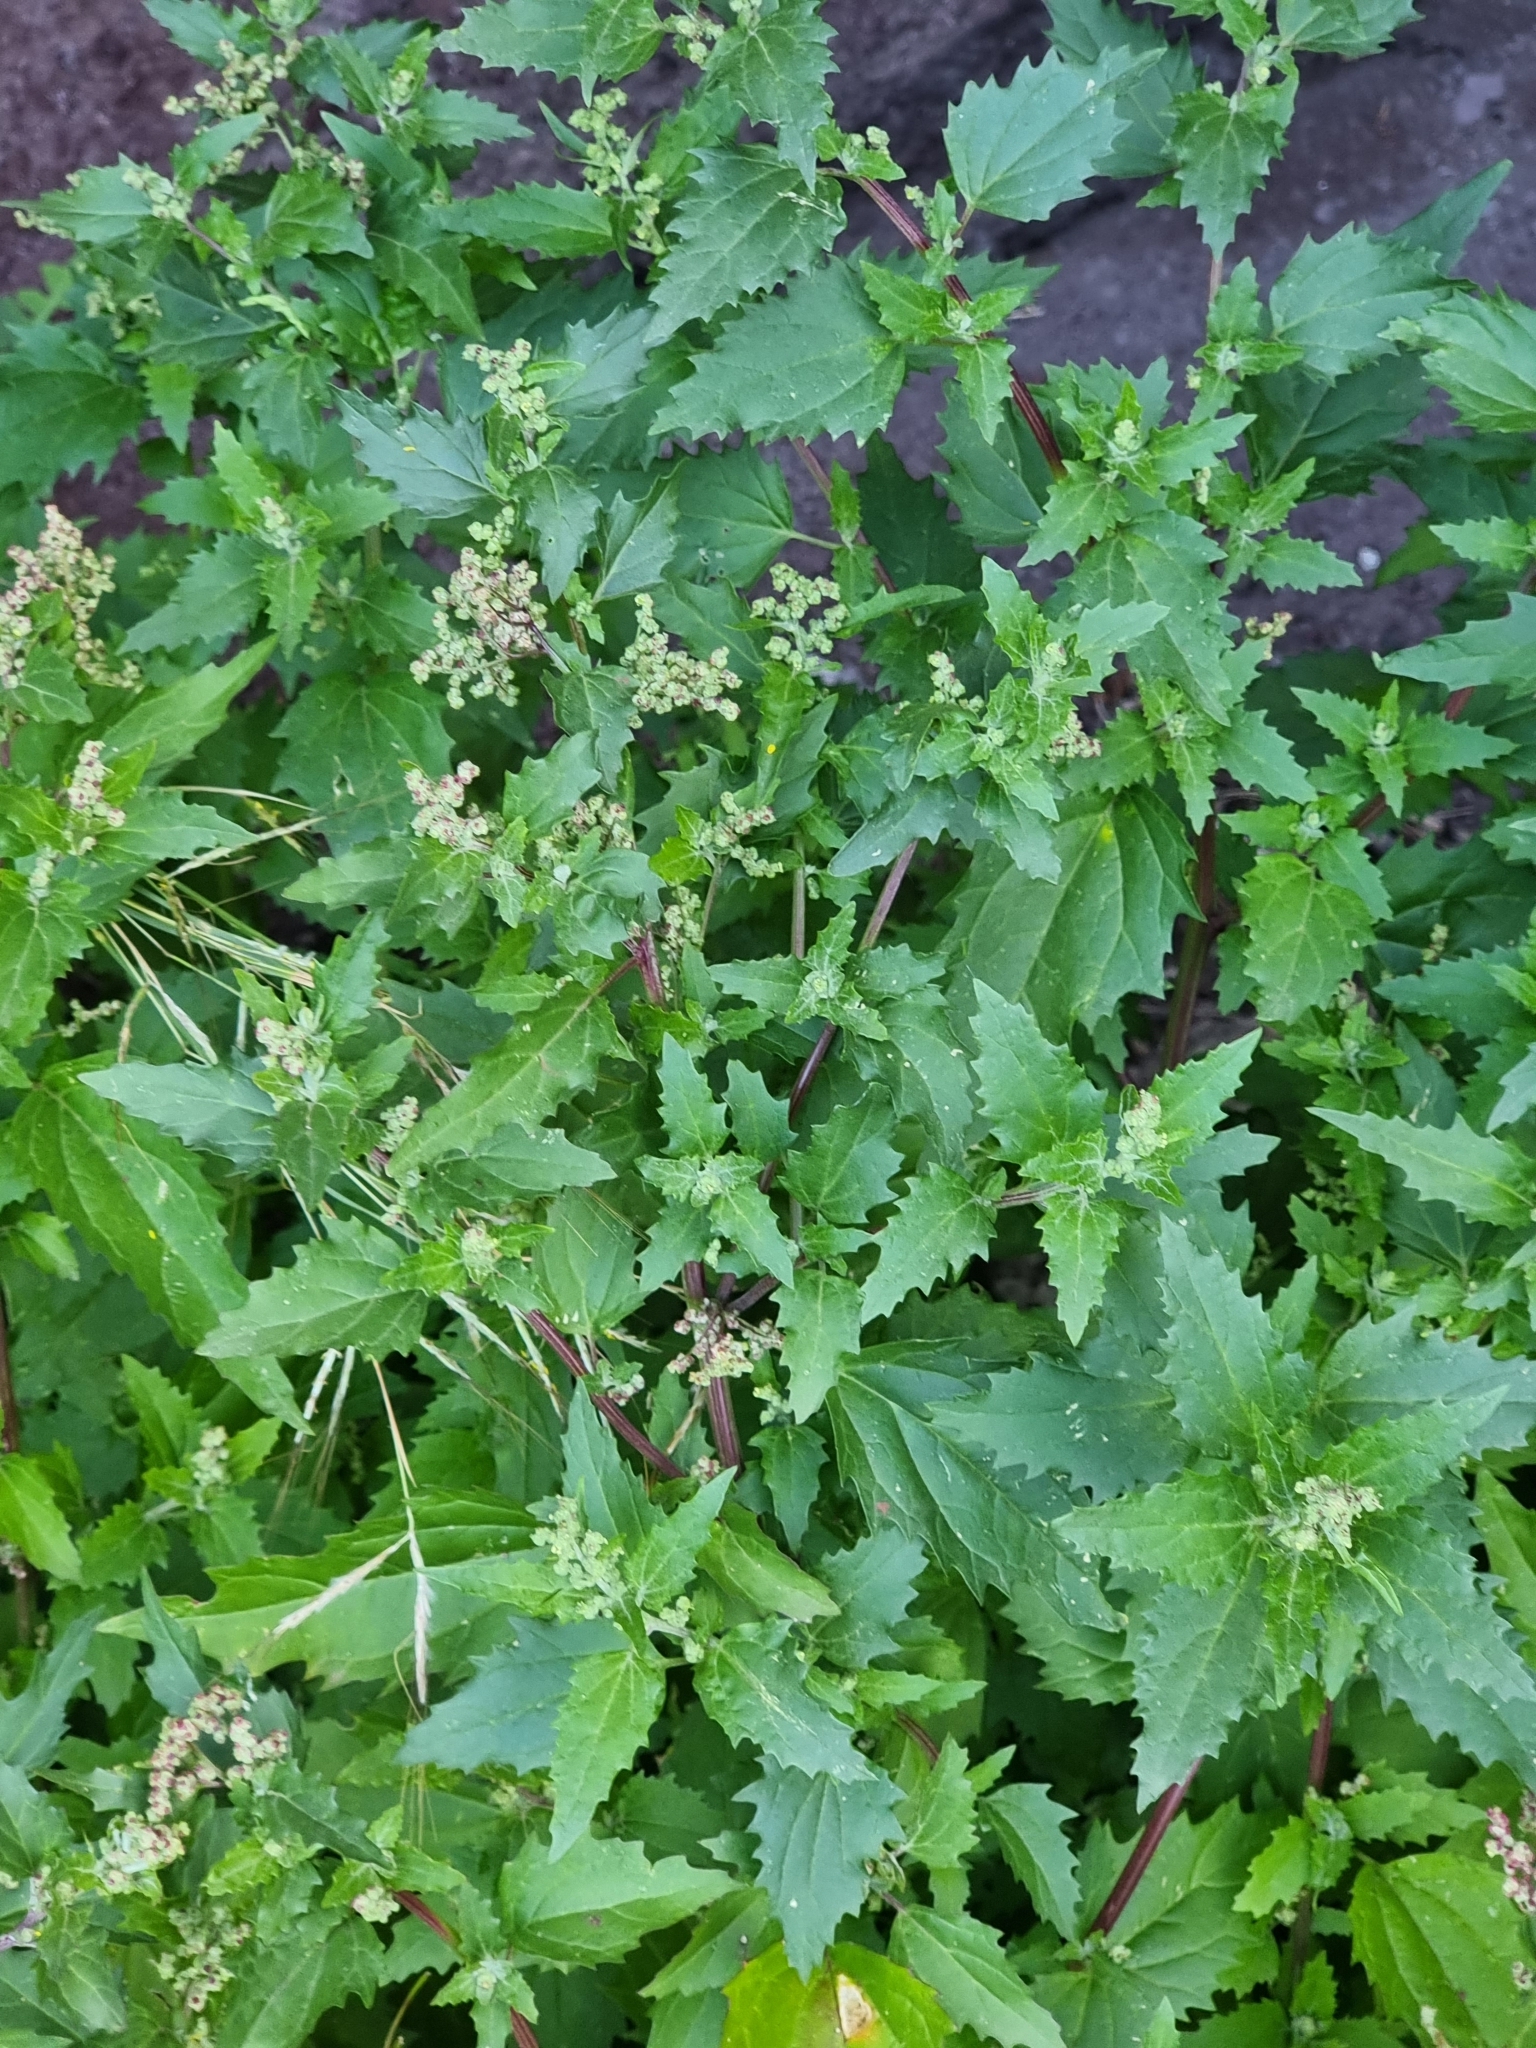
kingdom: Plantae
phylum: Tracheophyta
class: Magnoliopsida
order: Caryophyllales
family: Amaranthaceae
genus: Chenopodiastrum
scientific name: Chenopodiastrum murale
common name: Sowbane
